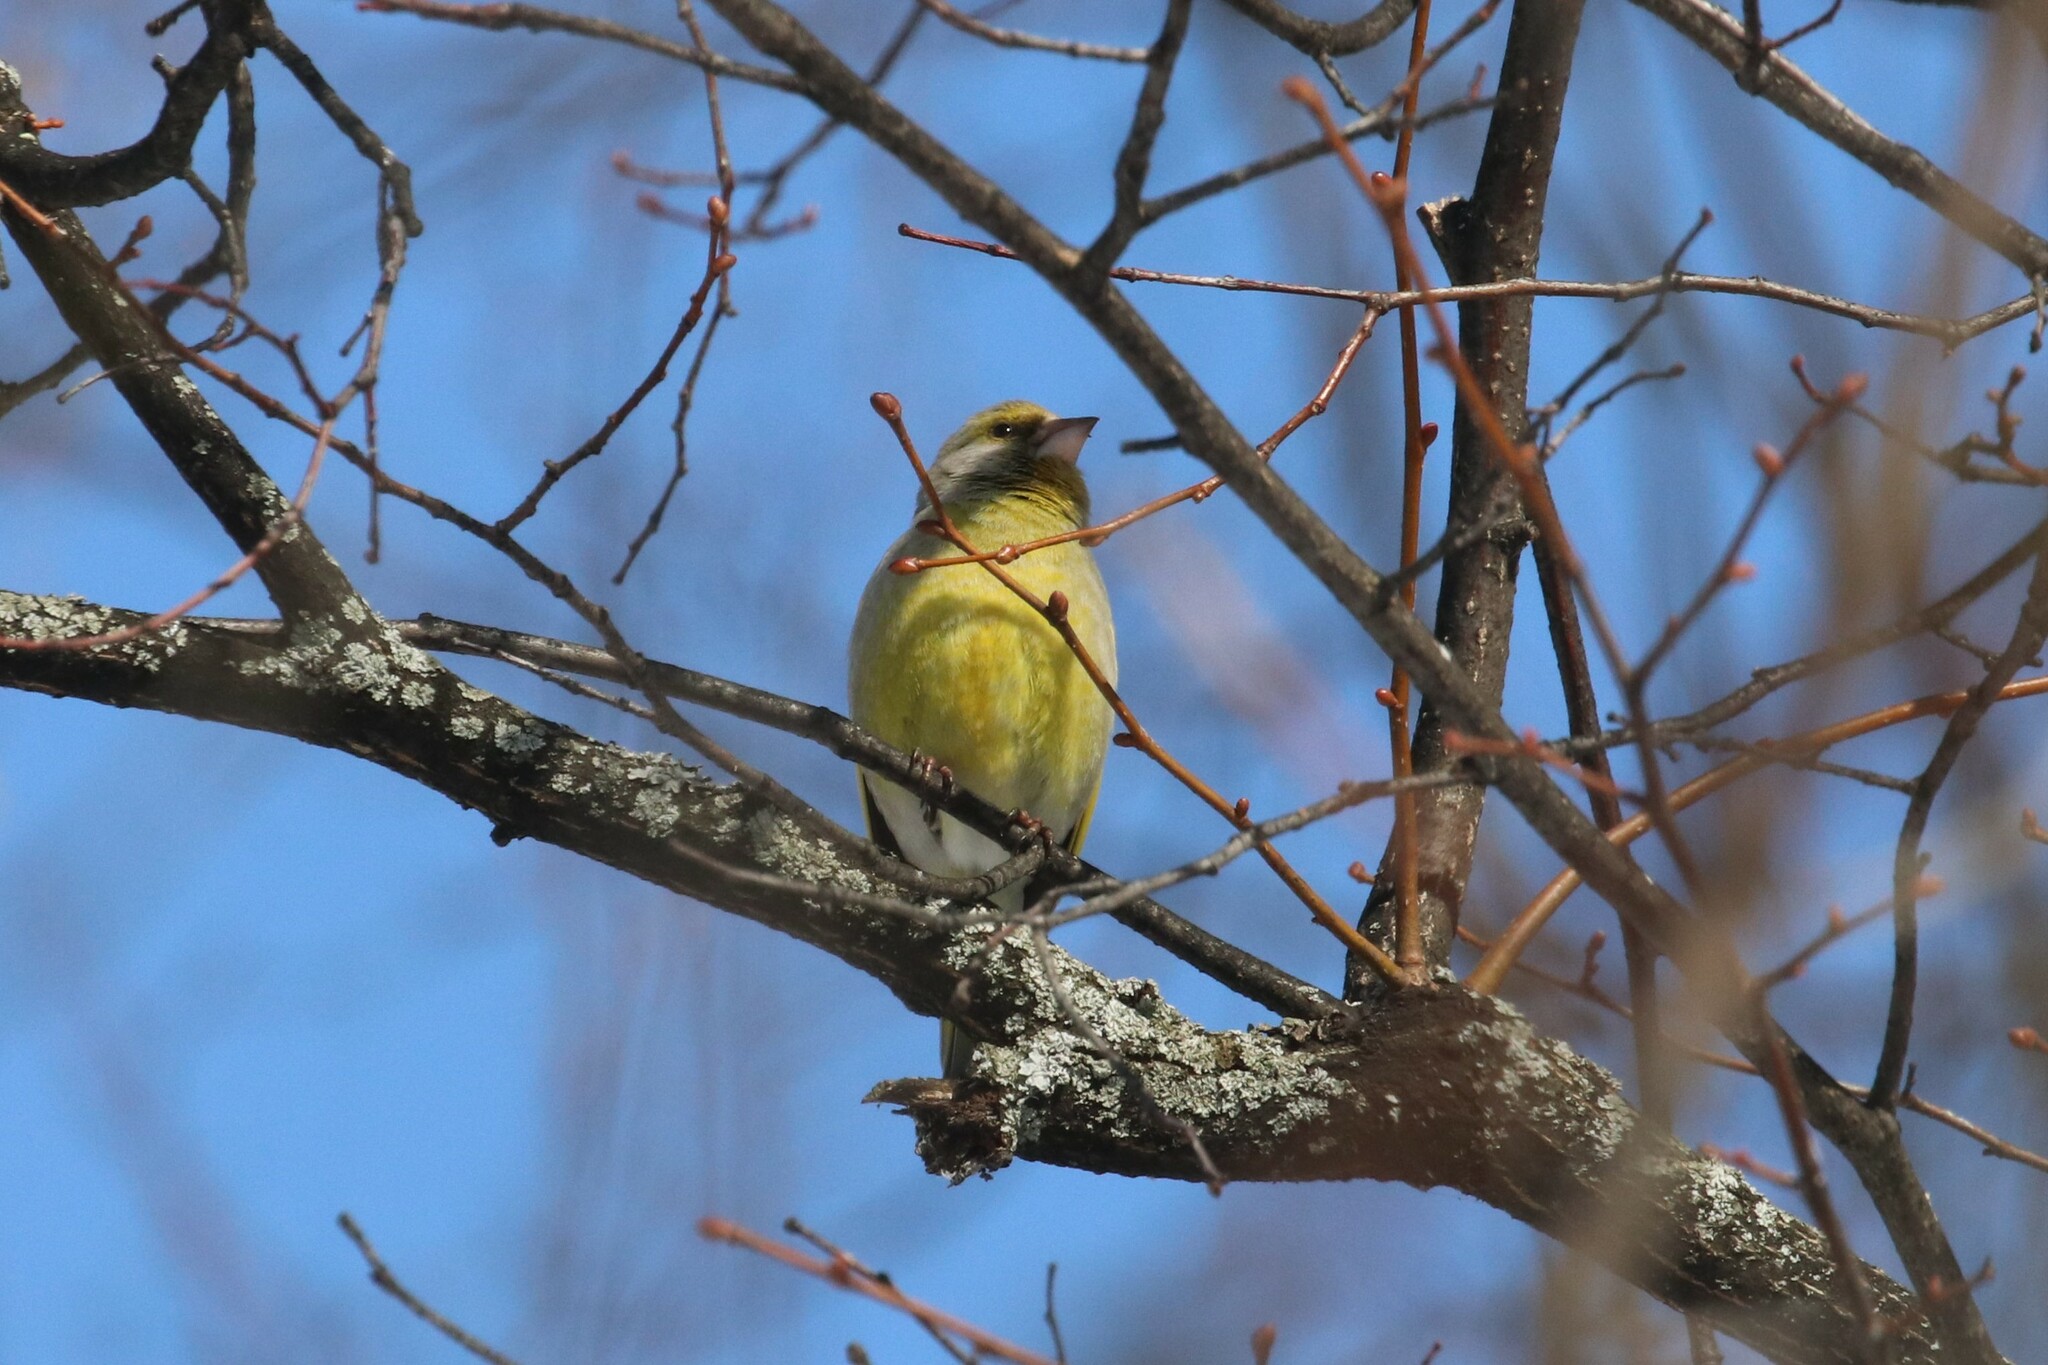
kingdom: Plantae
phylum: Tracheophyta
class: Liliopsida
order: Poales
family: Poaceae
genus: Chloris
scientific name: Chloris chloris
